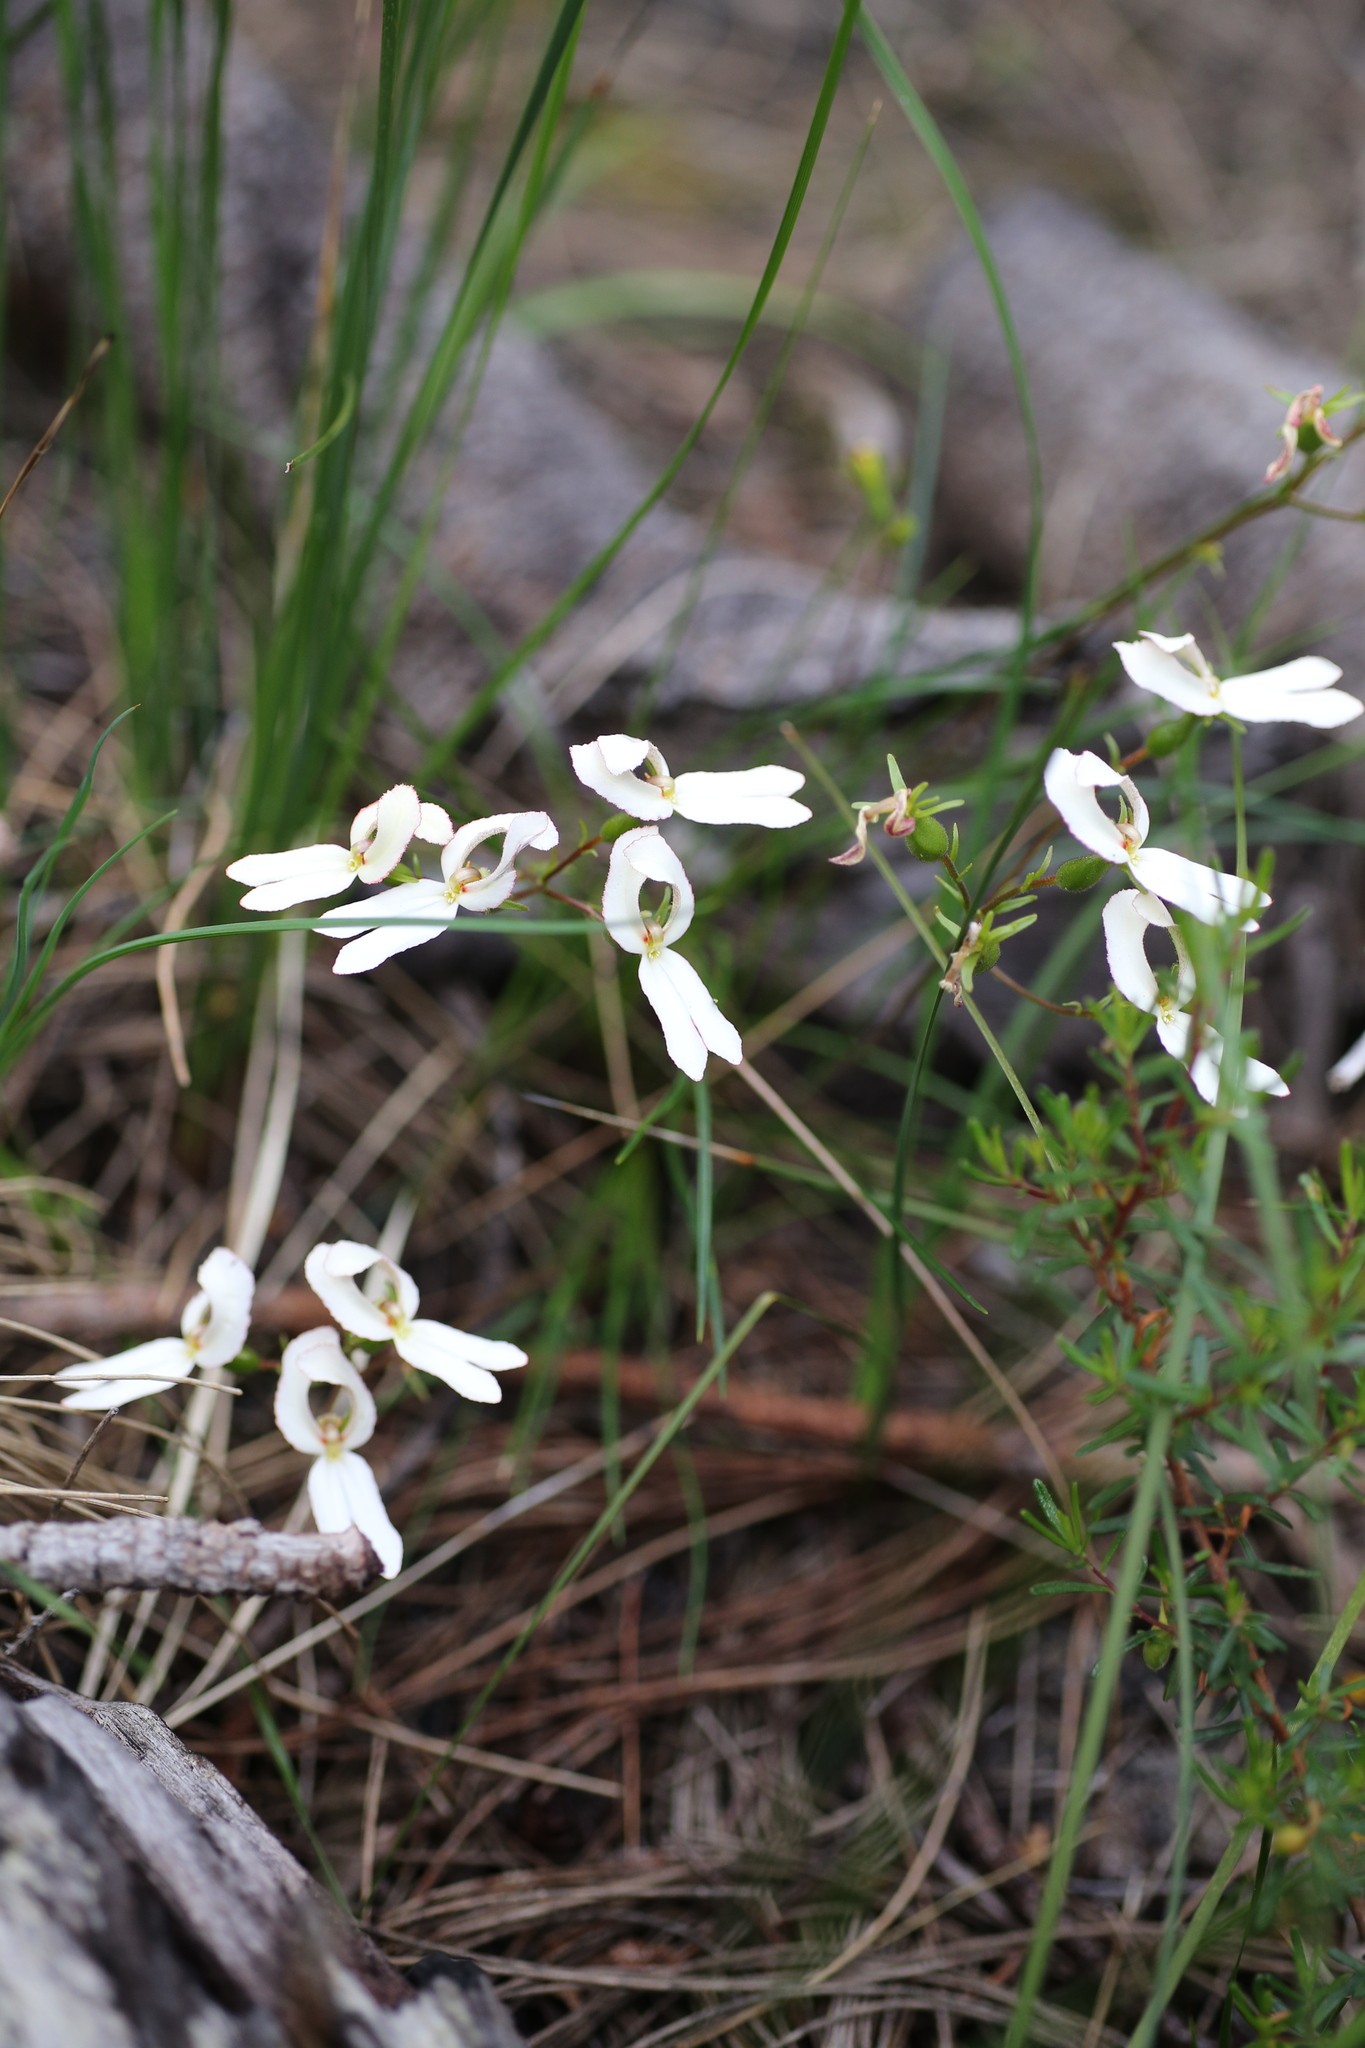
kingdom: Plantae
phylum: Tracheophyta
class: Magnoliopsida
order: Asterales
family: Stylidiaceae
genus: Stylidium
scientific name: Stylidium schoenoides
